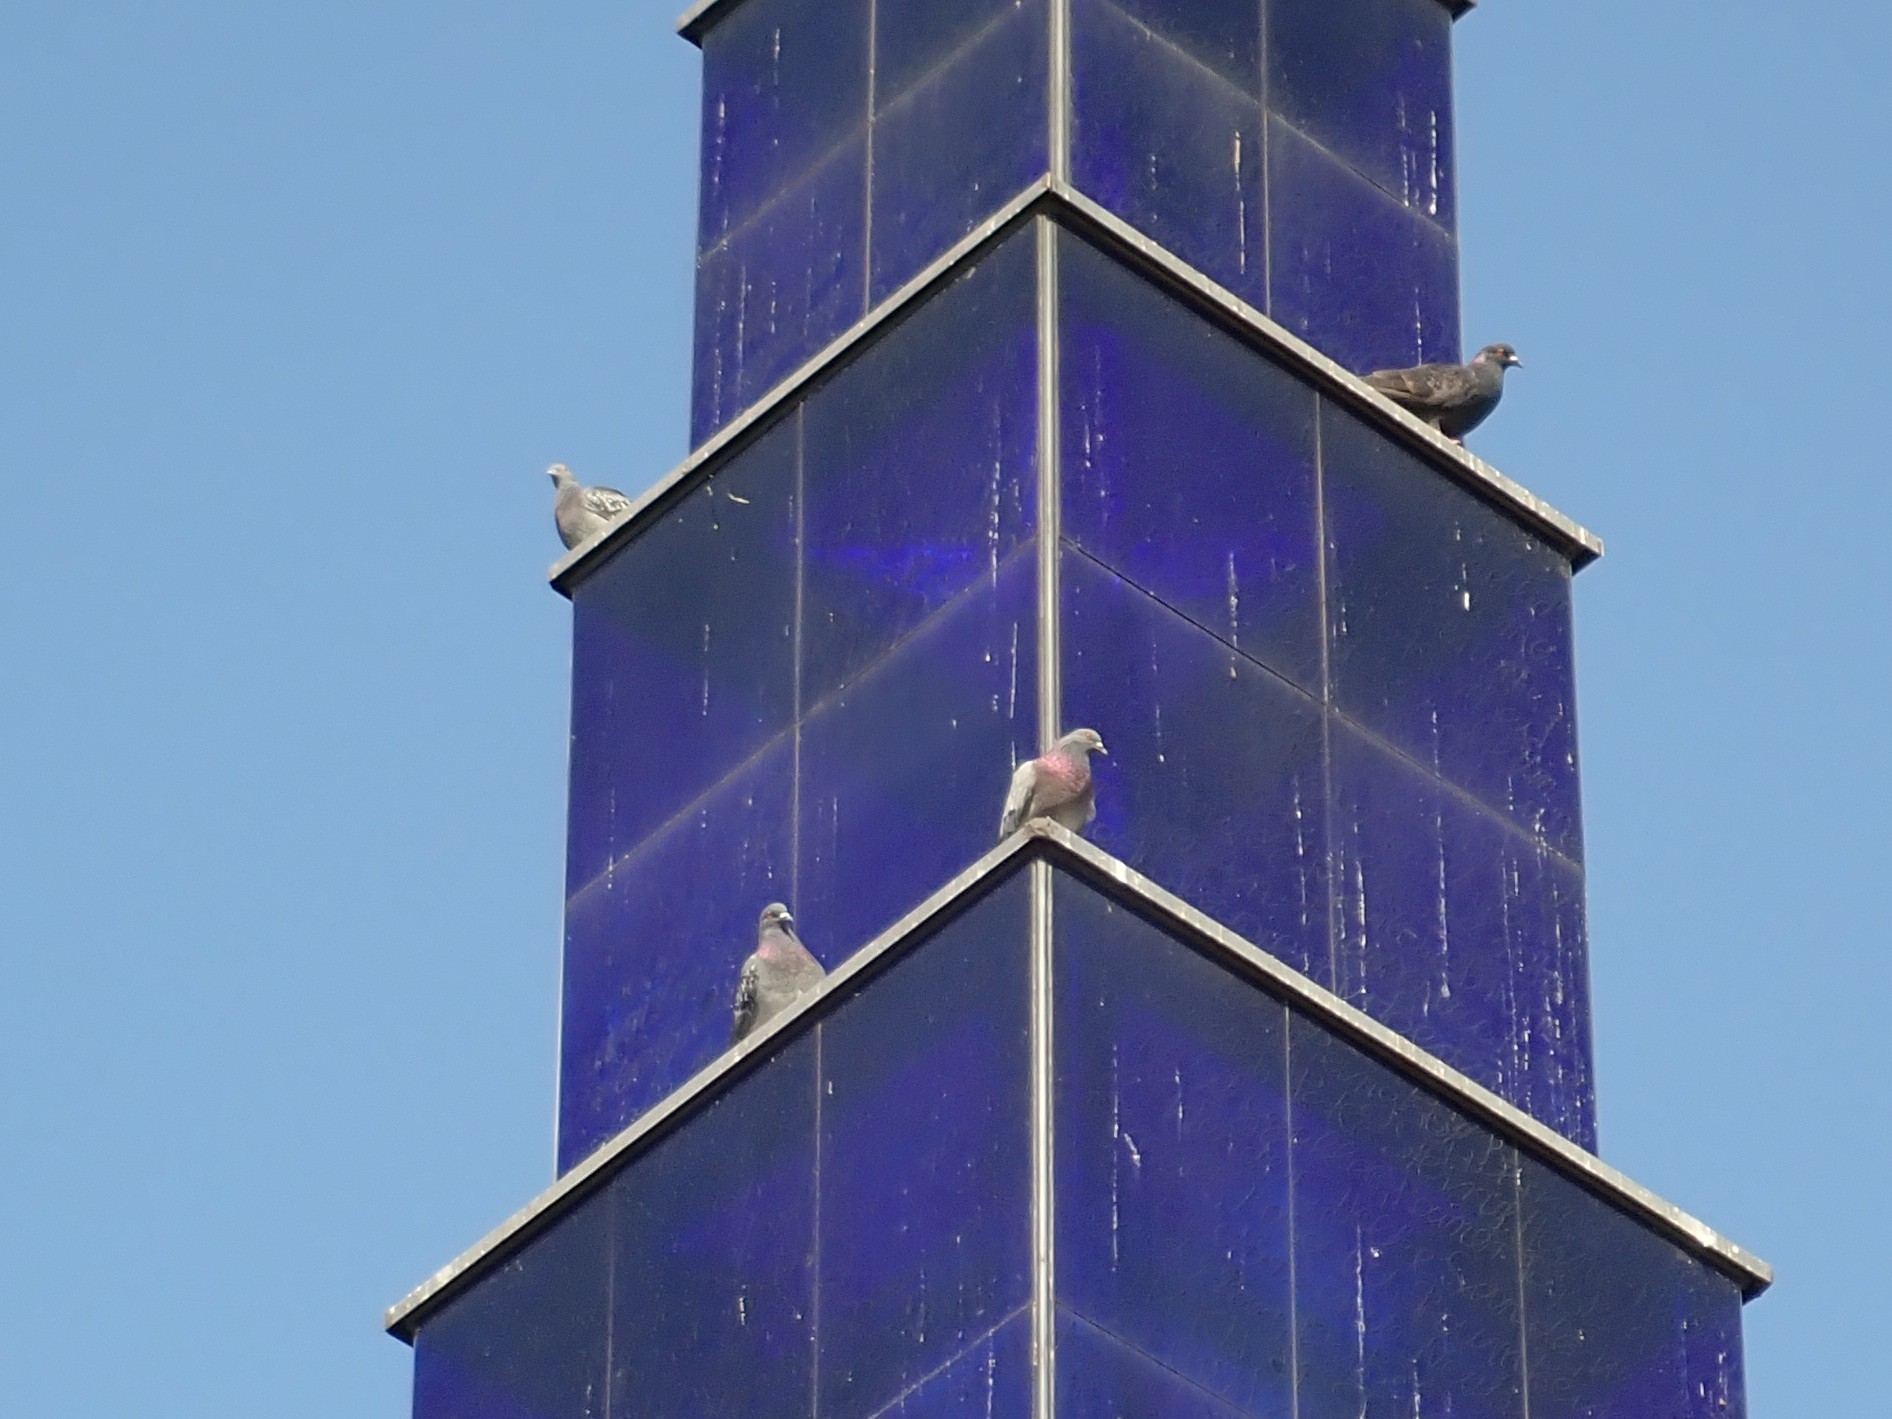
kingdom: Animalia
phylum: Chordata
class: Aves
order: Columbiformes
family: Columbidae
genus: Columba
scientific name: Columba livia
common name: Rock pigeon
